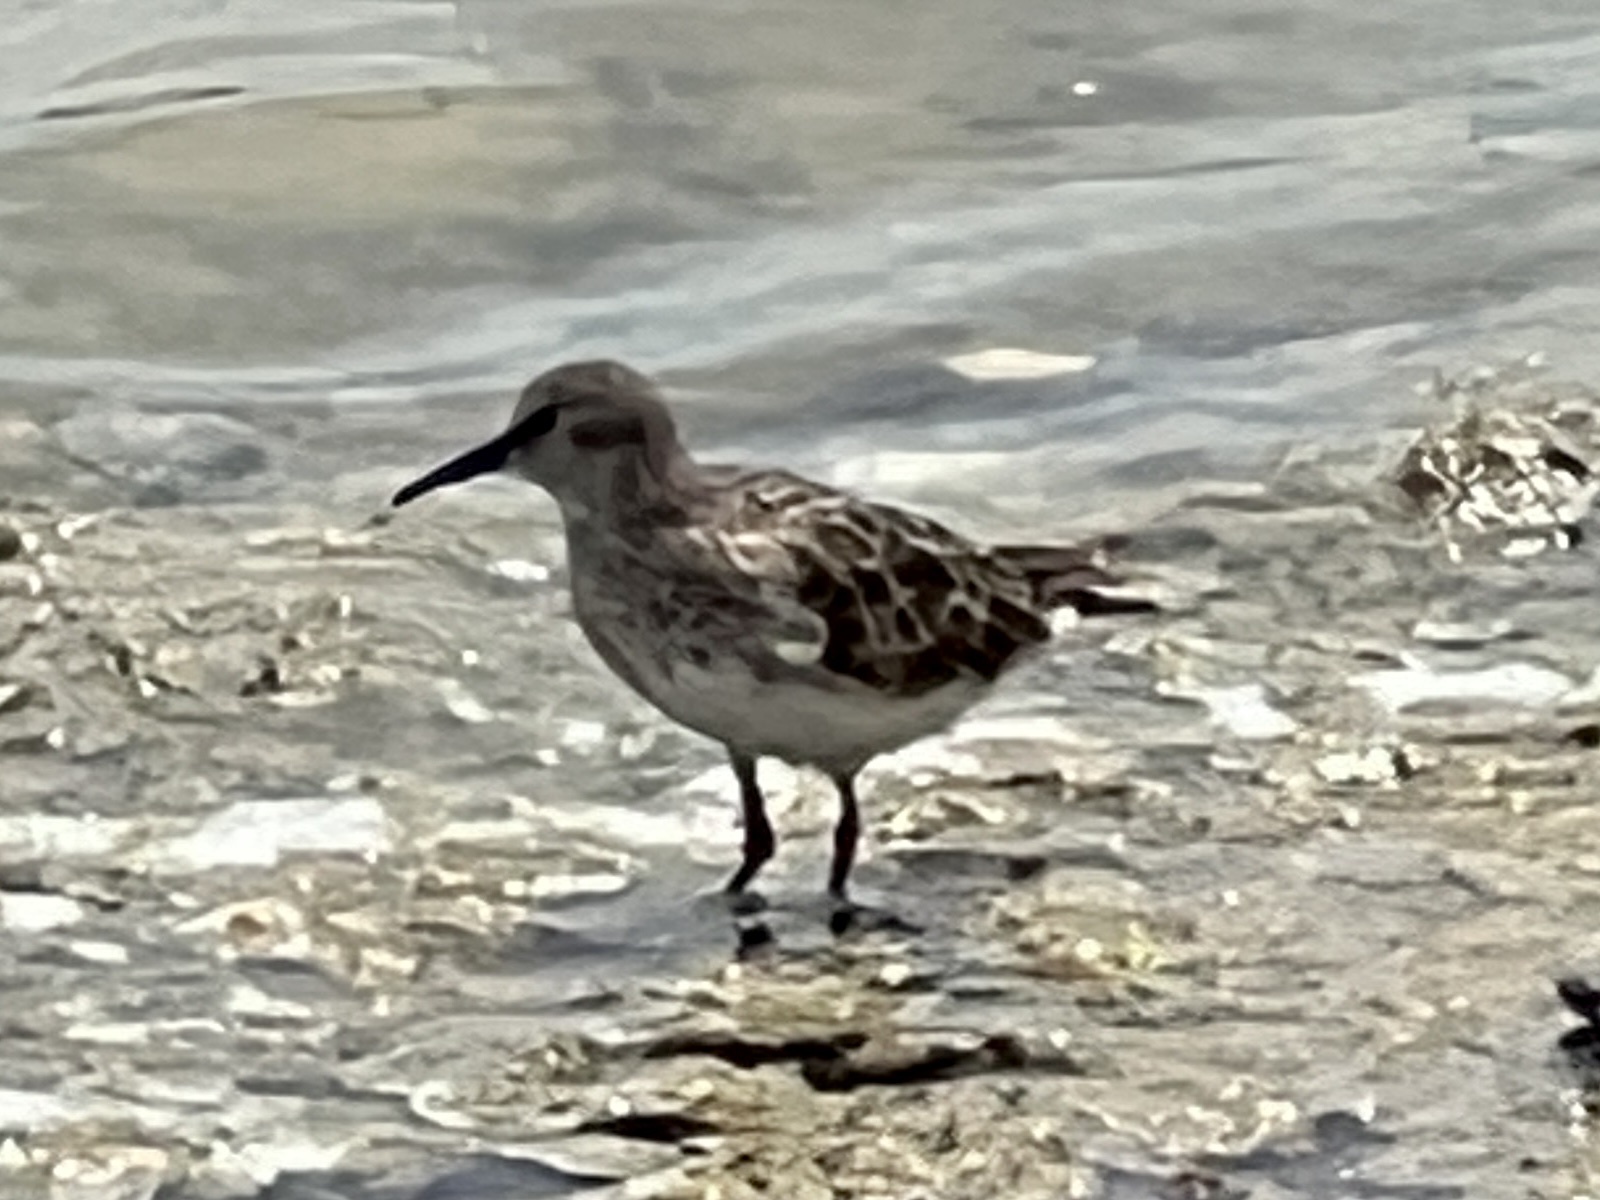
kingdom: Animalia
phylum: Chordata
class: Aves
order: Charadriiformes
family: Scolopacidae
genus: Calidris
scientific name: Calidris minutilla
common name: Least sandpiper
